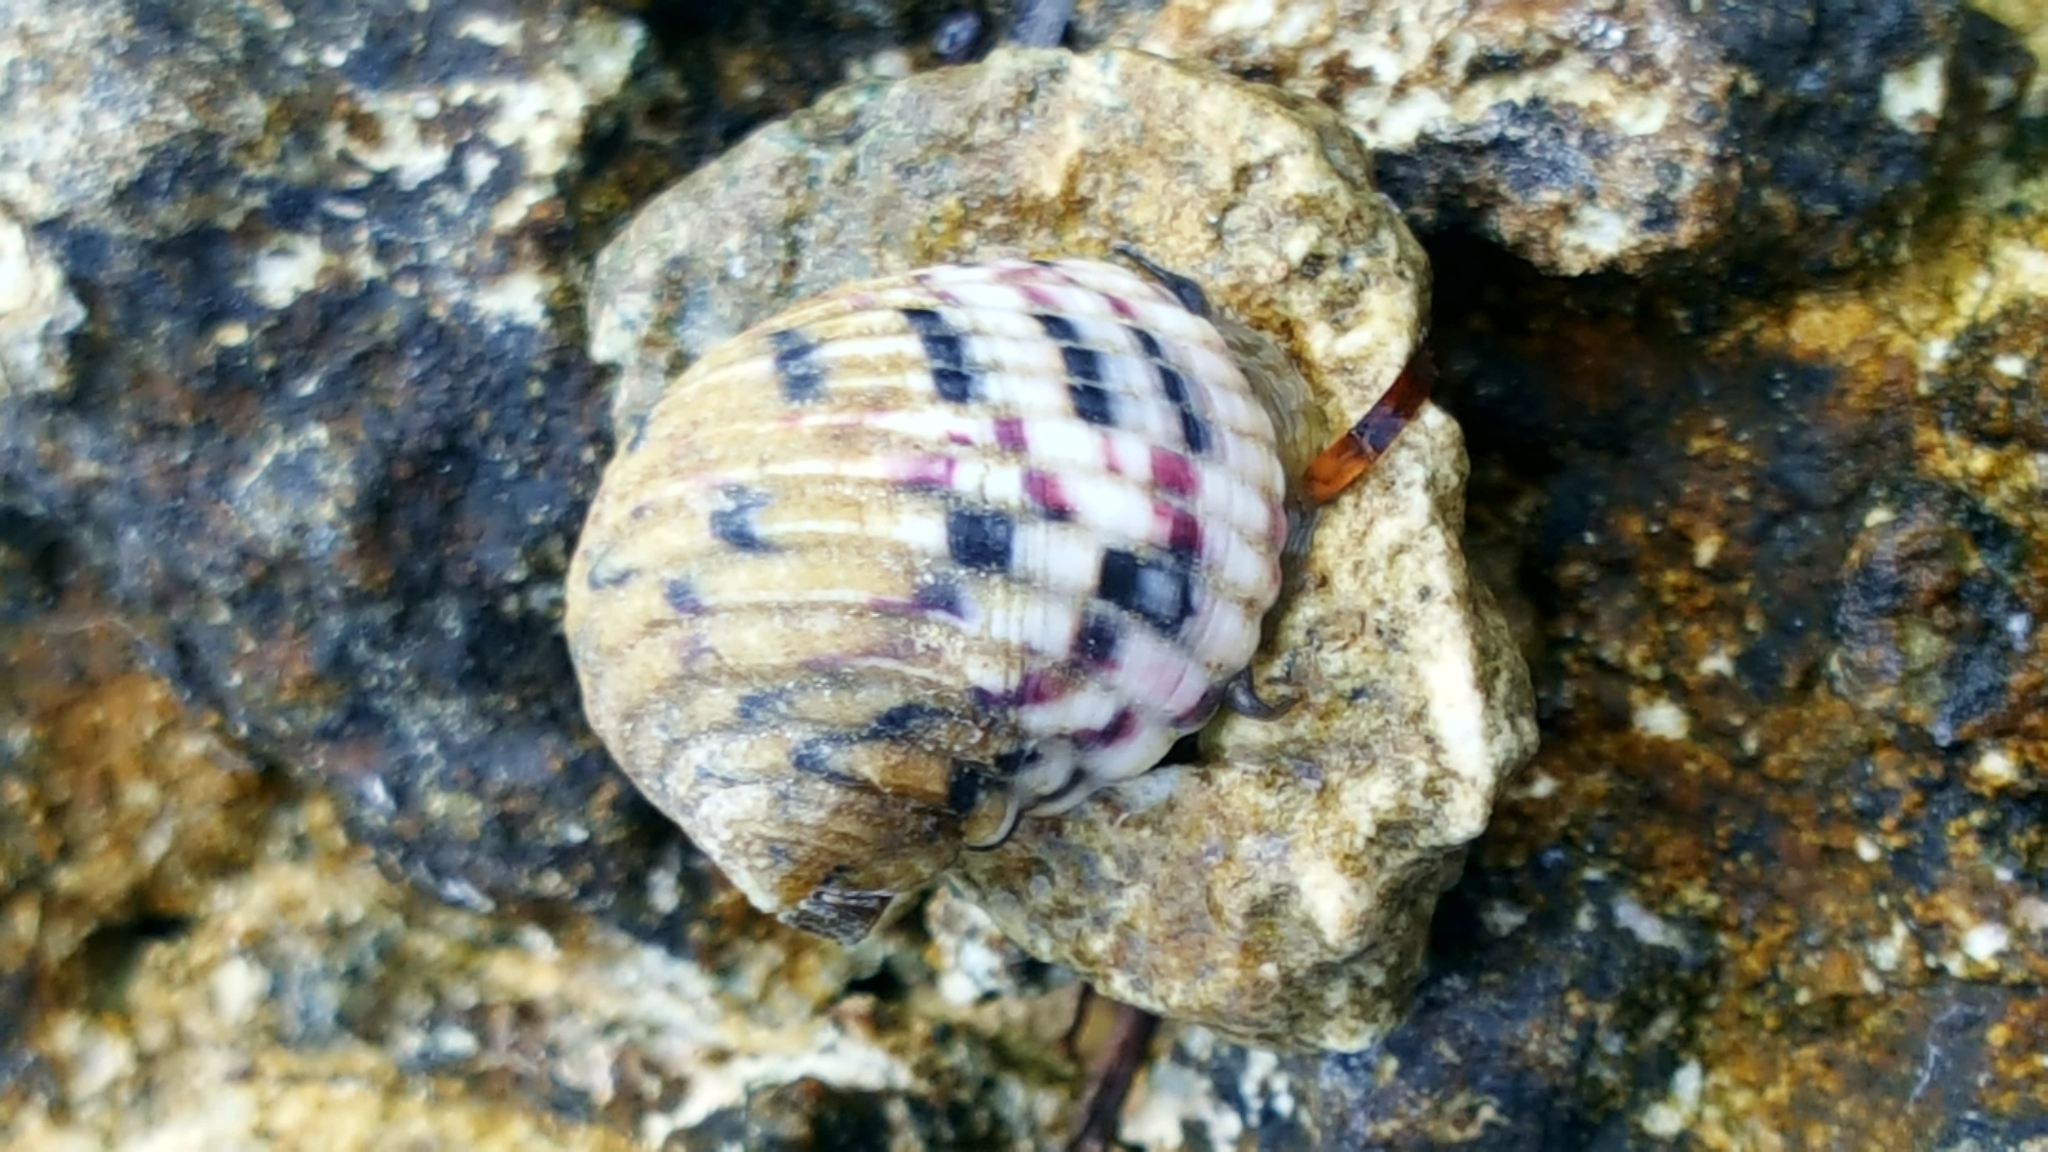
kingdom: Animalia
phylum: Mollusca
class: Gastropoda
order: Cycloneritida
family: Neritidae
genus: Nerita
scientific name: Nerita versicolor
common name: Four-tooth nerite
